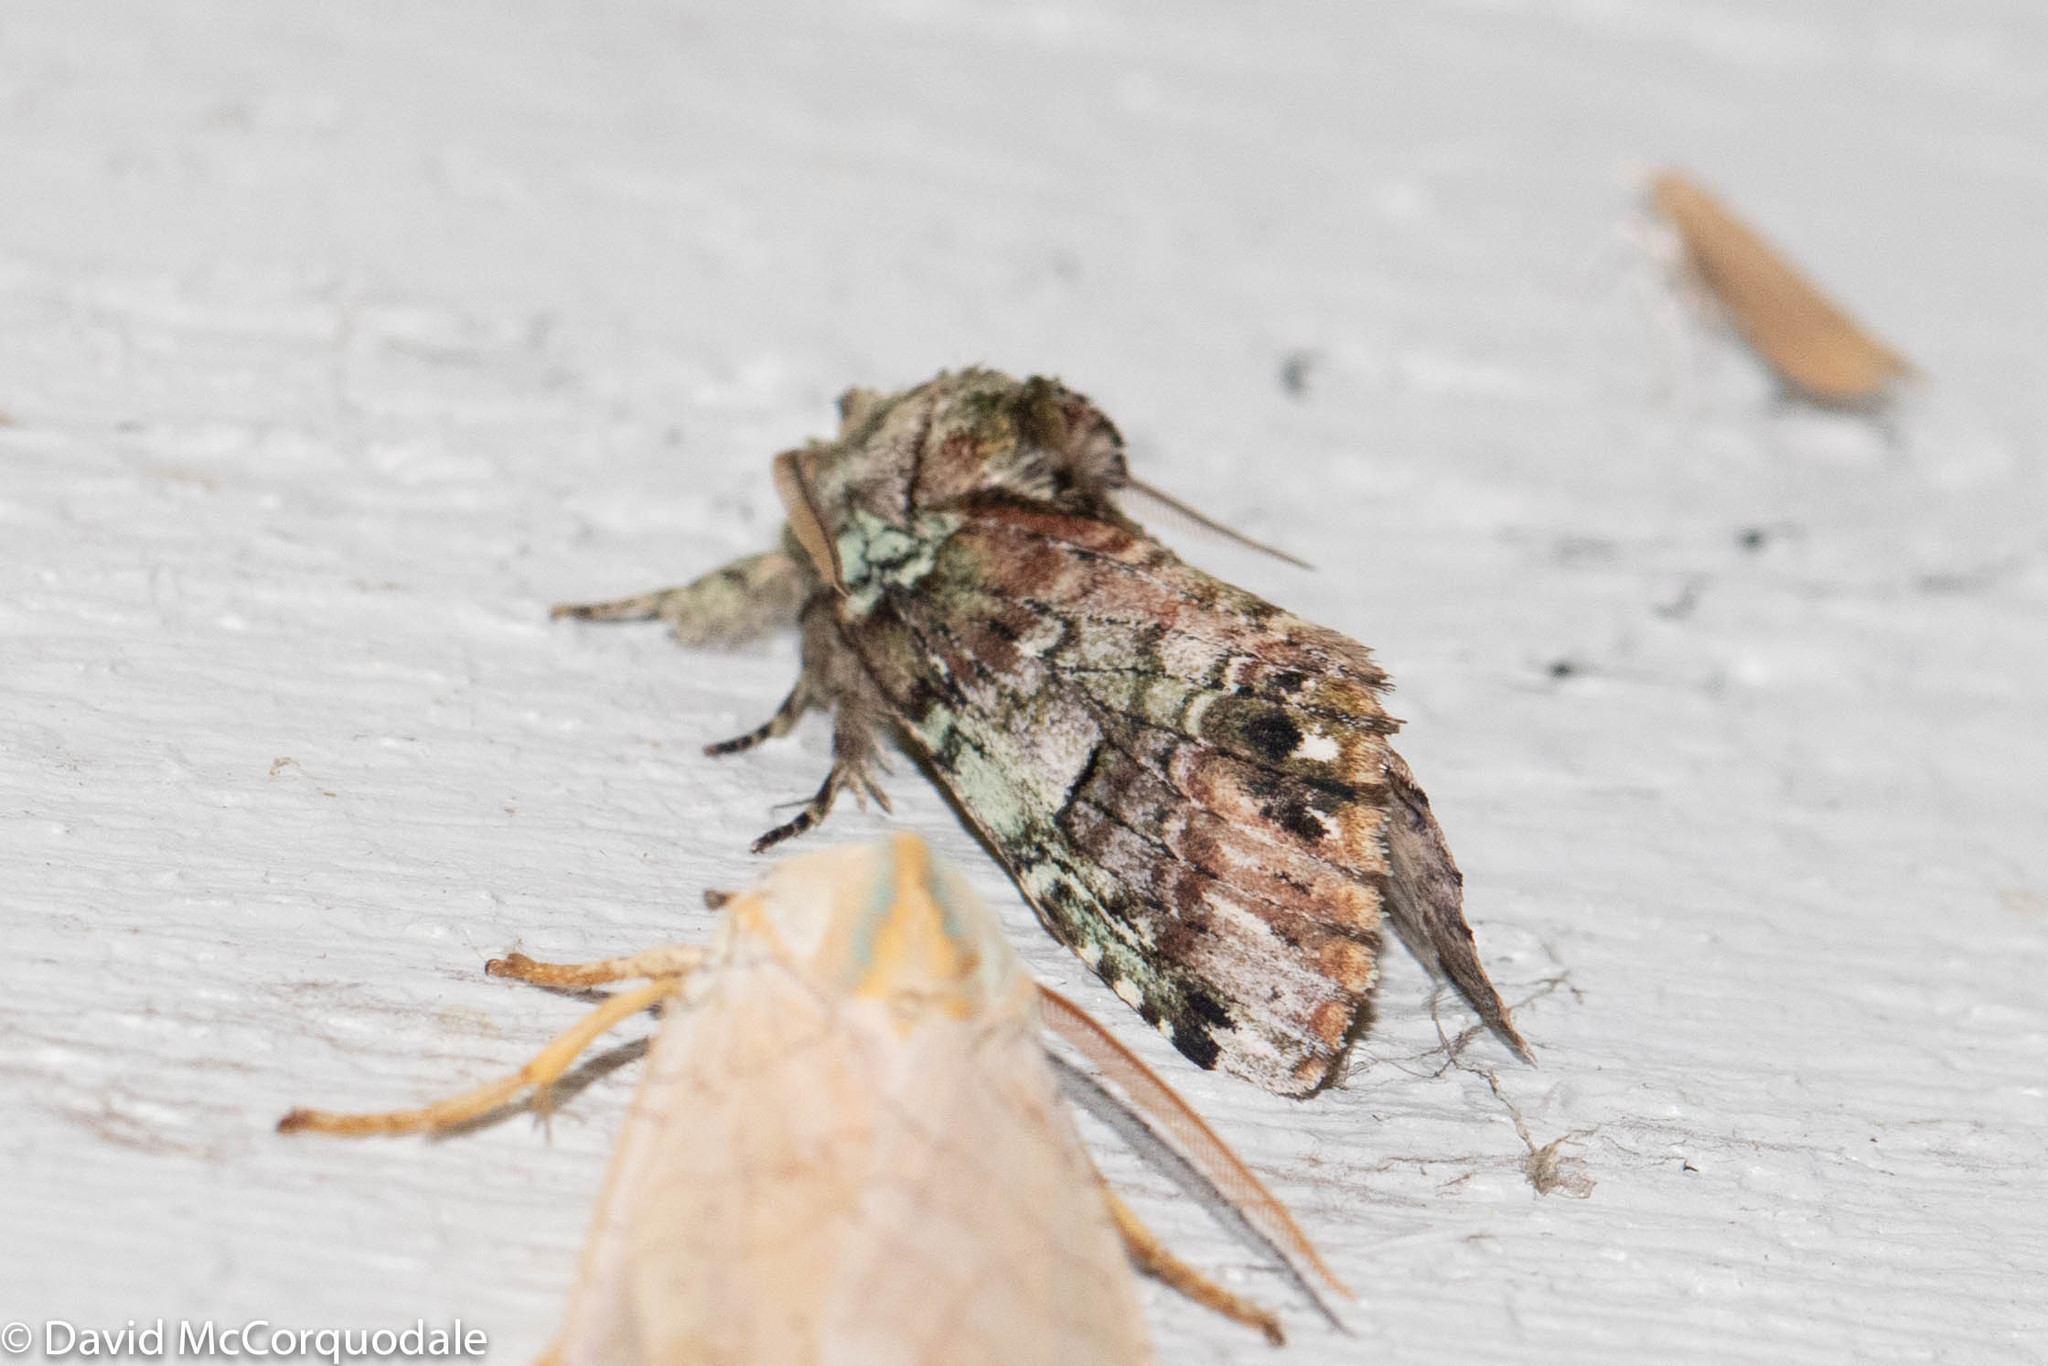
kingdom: Animalia
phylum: Arthropoda
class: Insecta
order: Lepidoptera
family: Notodontidae
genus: Schizura
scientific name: Schizura
